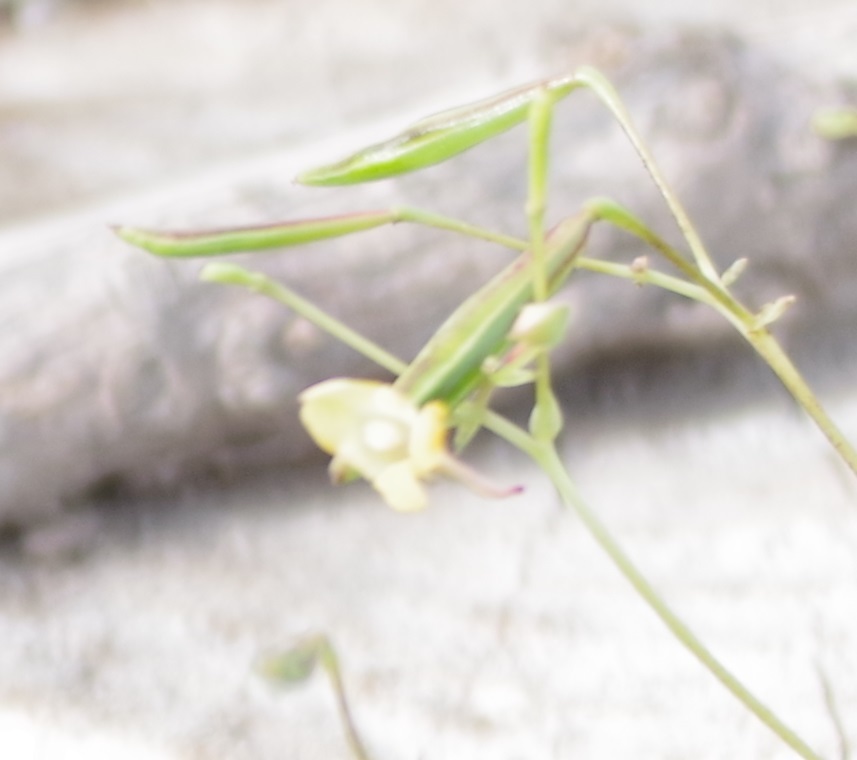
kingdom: Plantae
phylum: Tracheophyta
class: Magnoliopsida
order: Ericales
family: Balsaminaceae
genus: Impatiens
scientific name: Impatiens parviflora
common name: Small balsam
